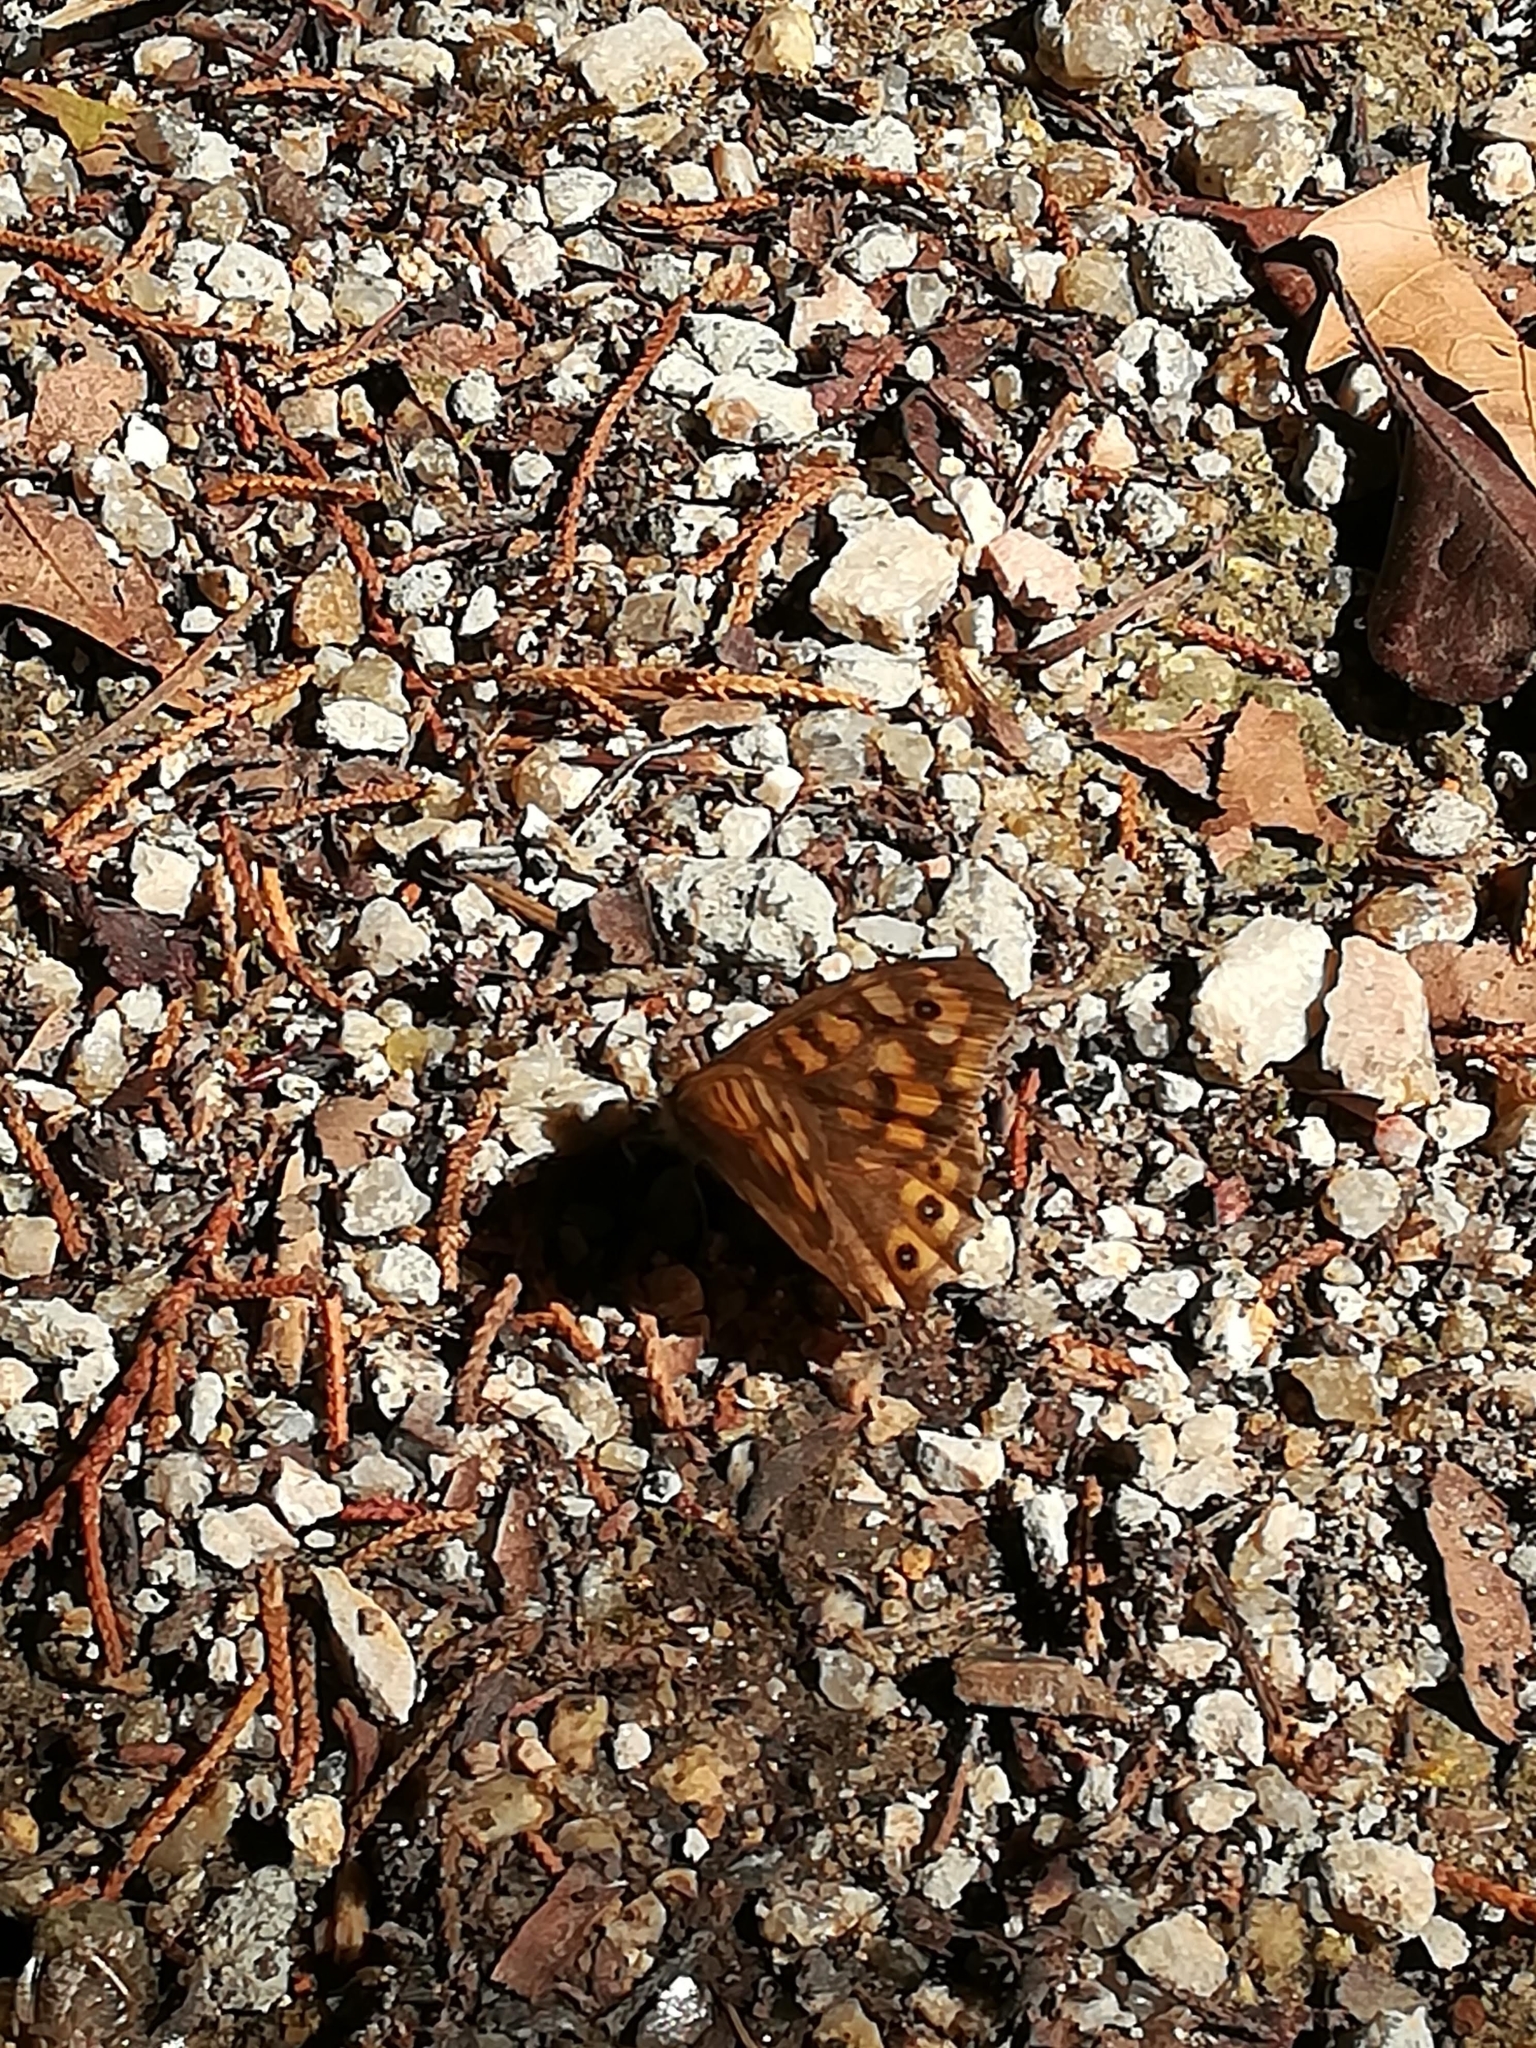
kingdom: Animalia
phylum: Arthropoda
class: Insecta
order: Lepidoptera
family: Nymphalidae
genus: Pararge
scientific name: Pararge aegeria
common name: Speckled wood
